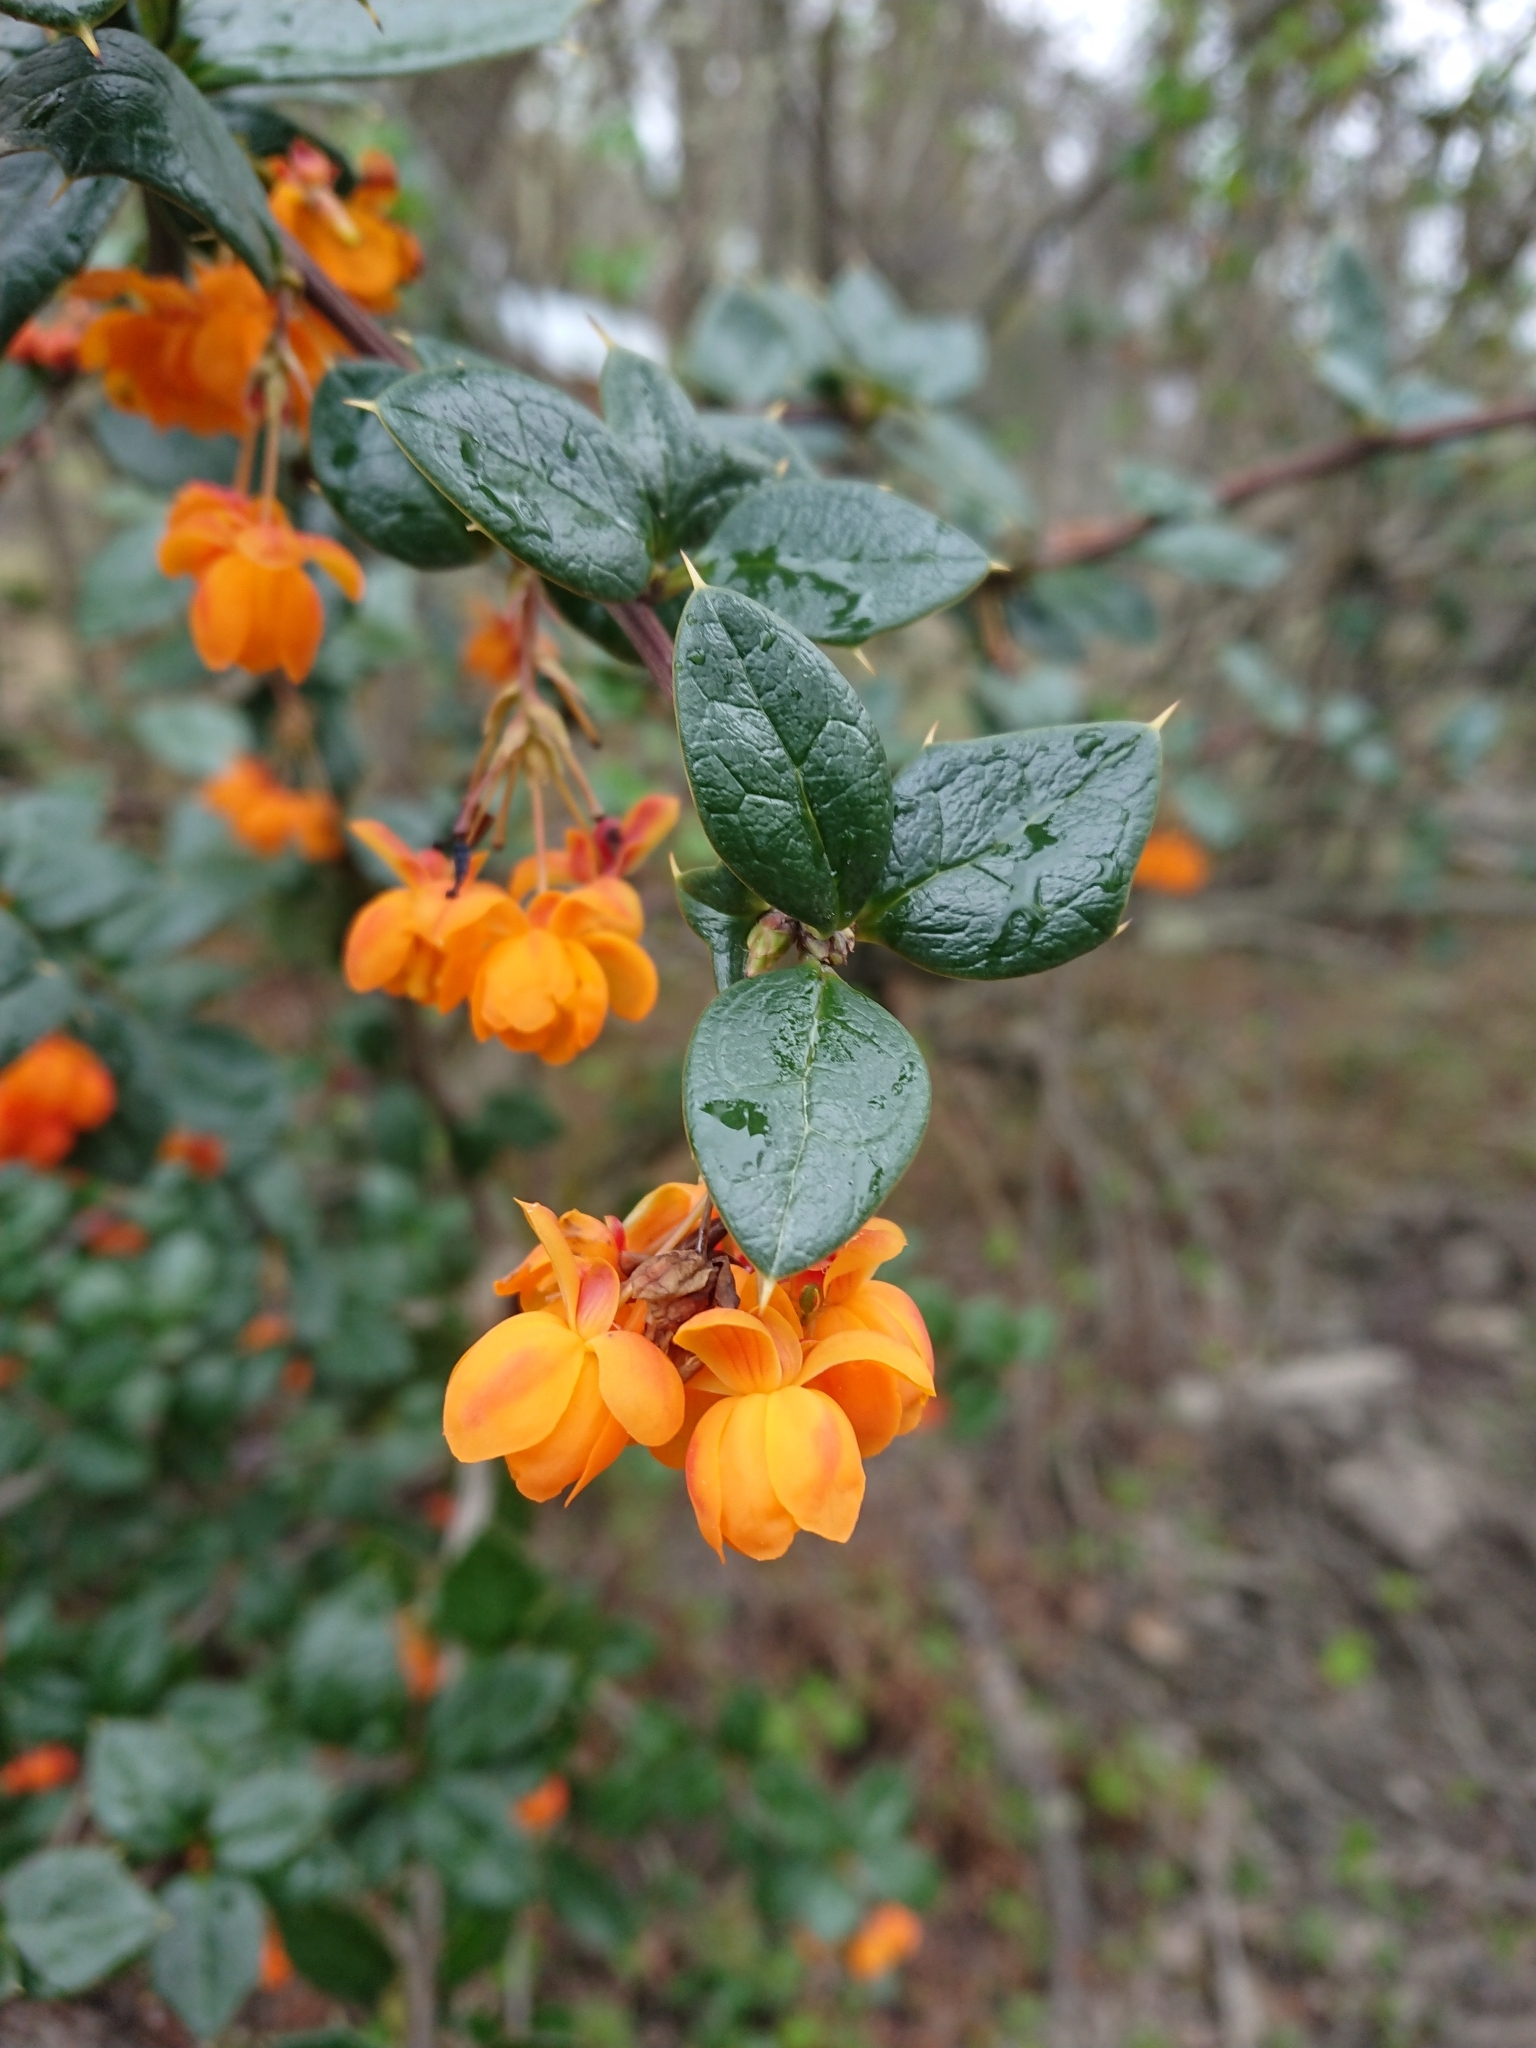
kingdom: Plantae
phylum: Tracheophyta
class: Magnoliopsida
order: Ranunculales
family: Berberidaceae
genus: Berberis
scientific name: Berberis ilicifolia
